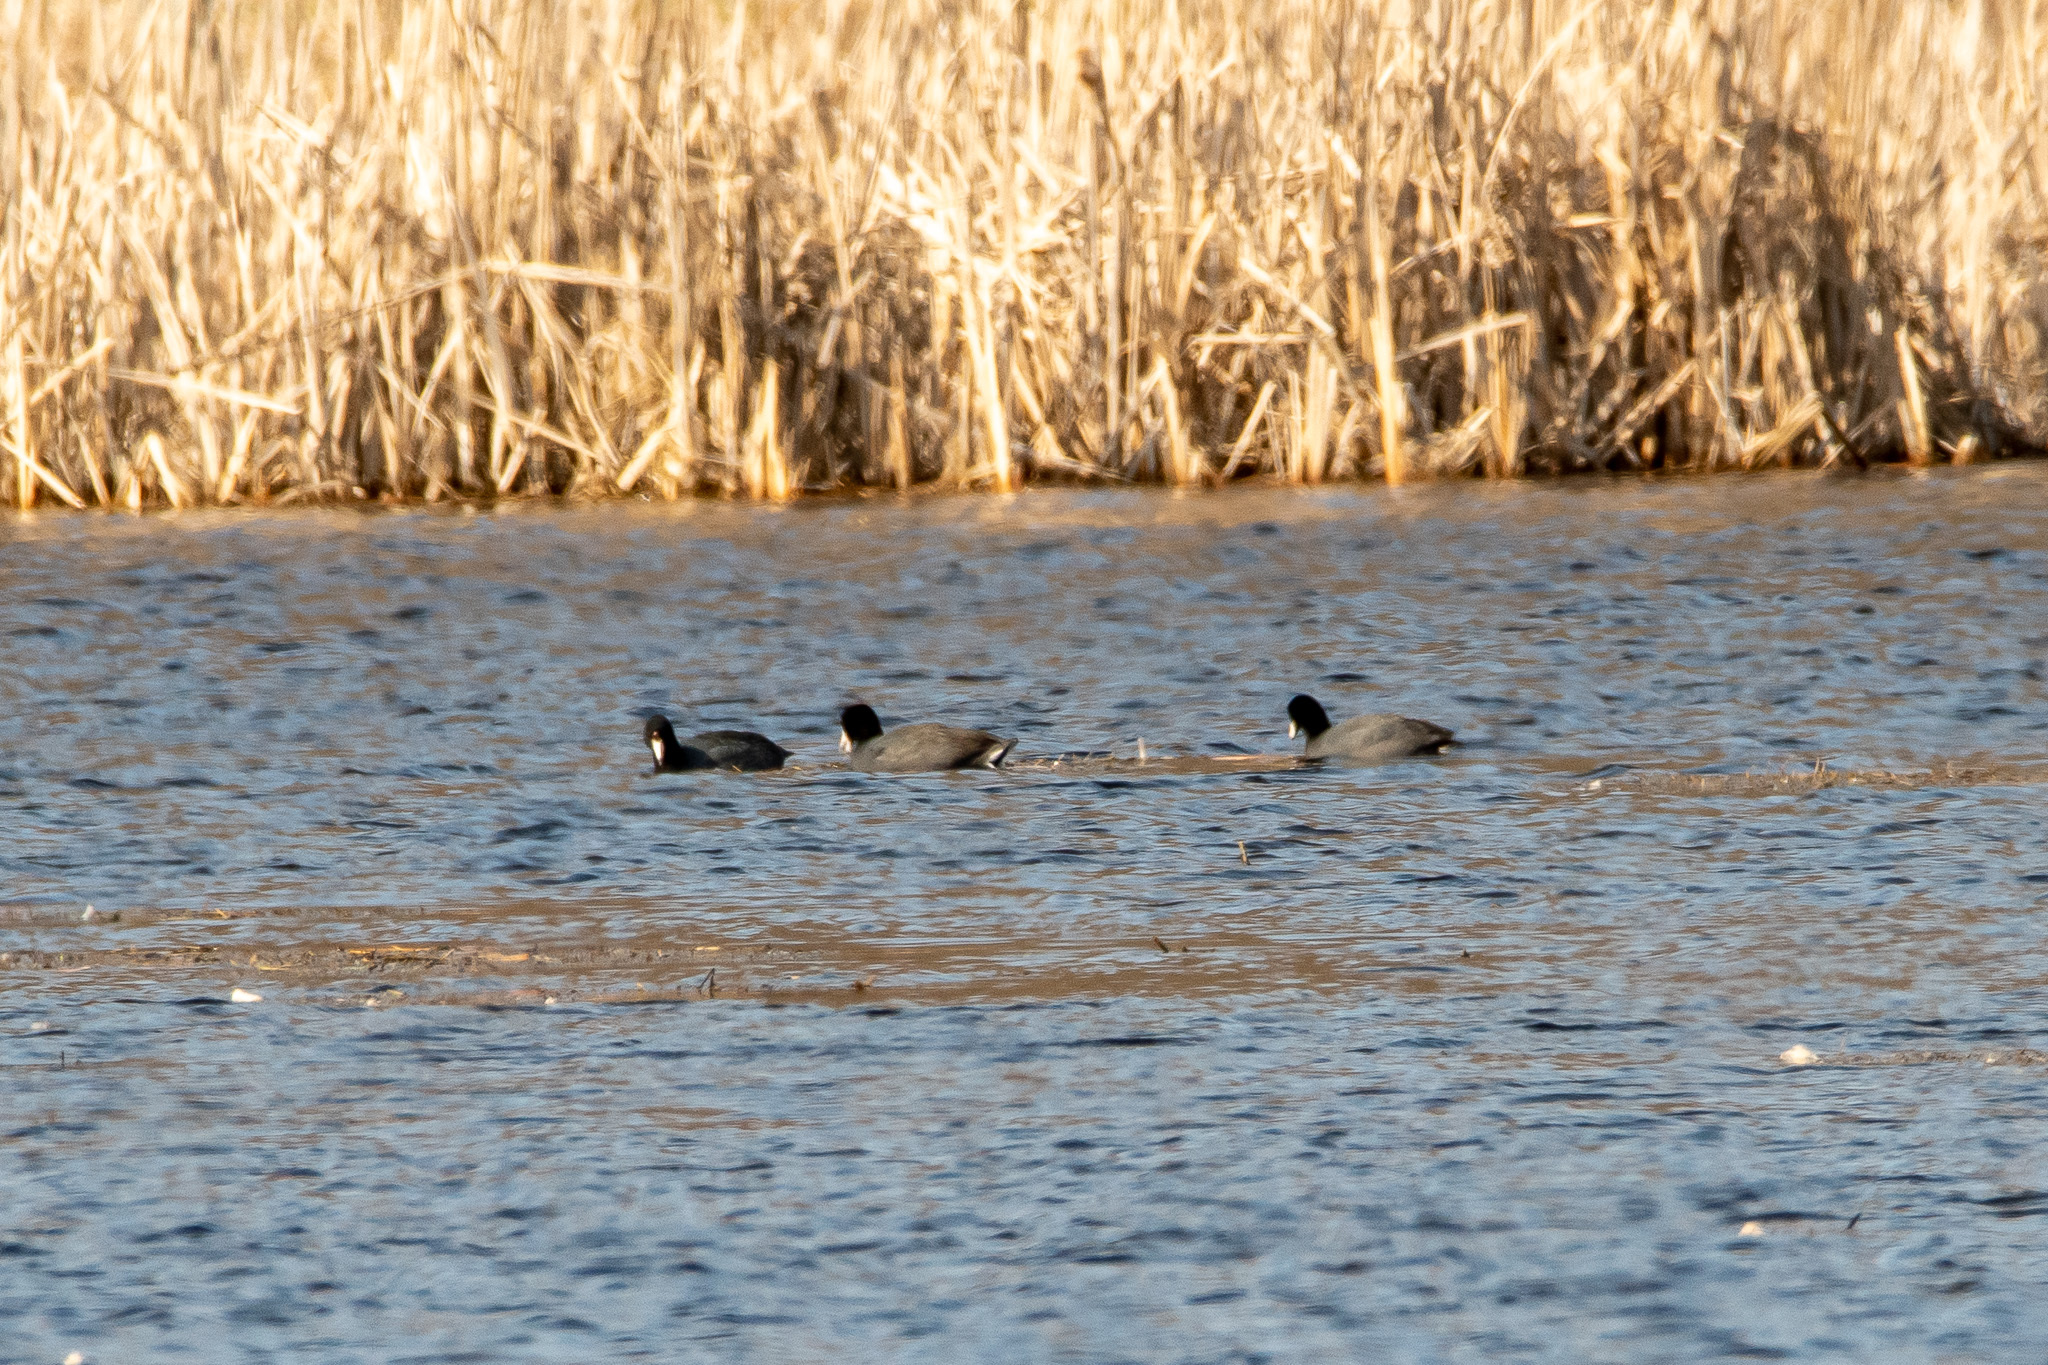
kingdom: Animalia
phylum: Chordata
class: Aves
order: Gruiformes
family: Rallidae
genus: Fulica
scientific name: Fulica americana
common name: American coot
